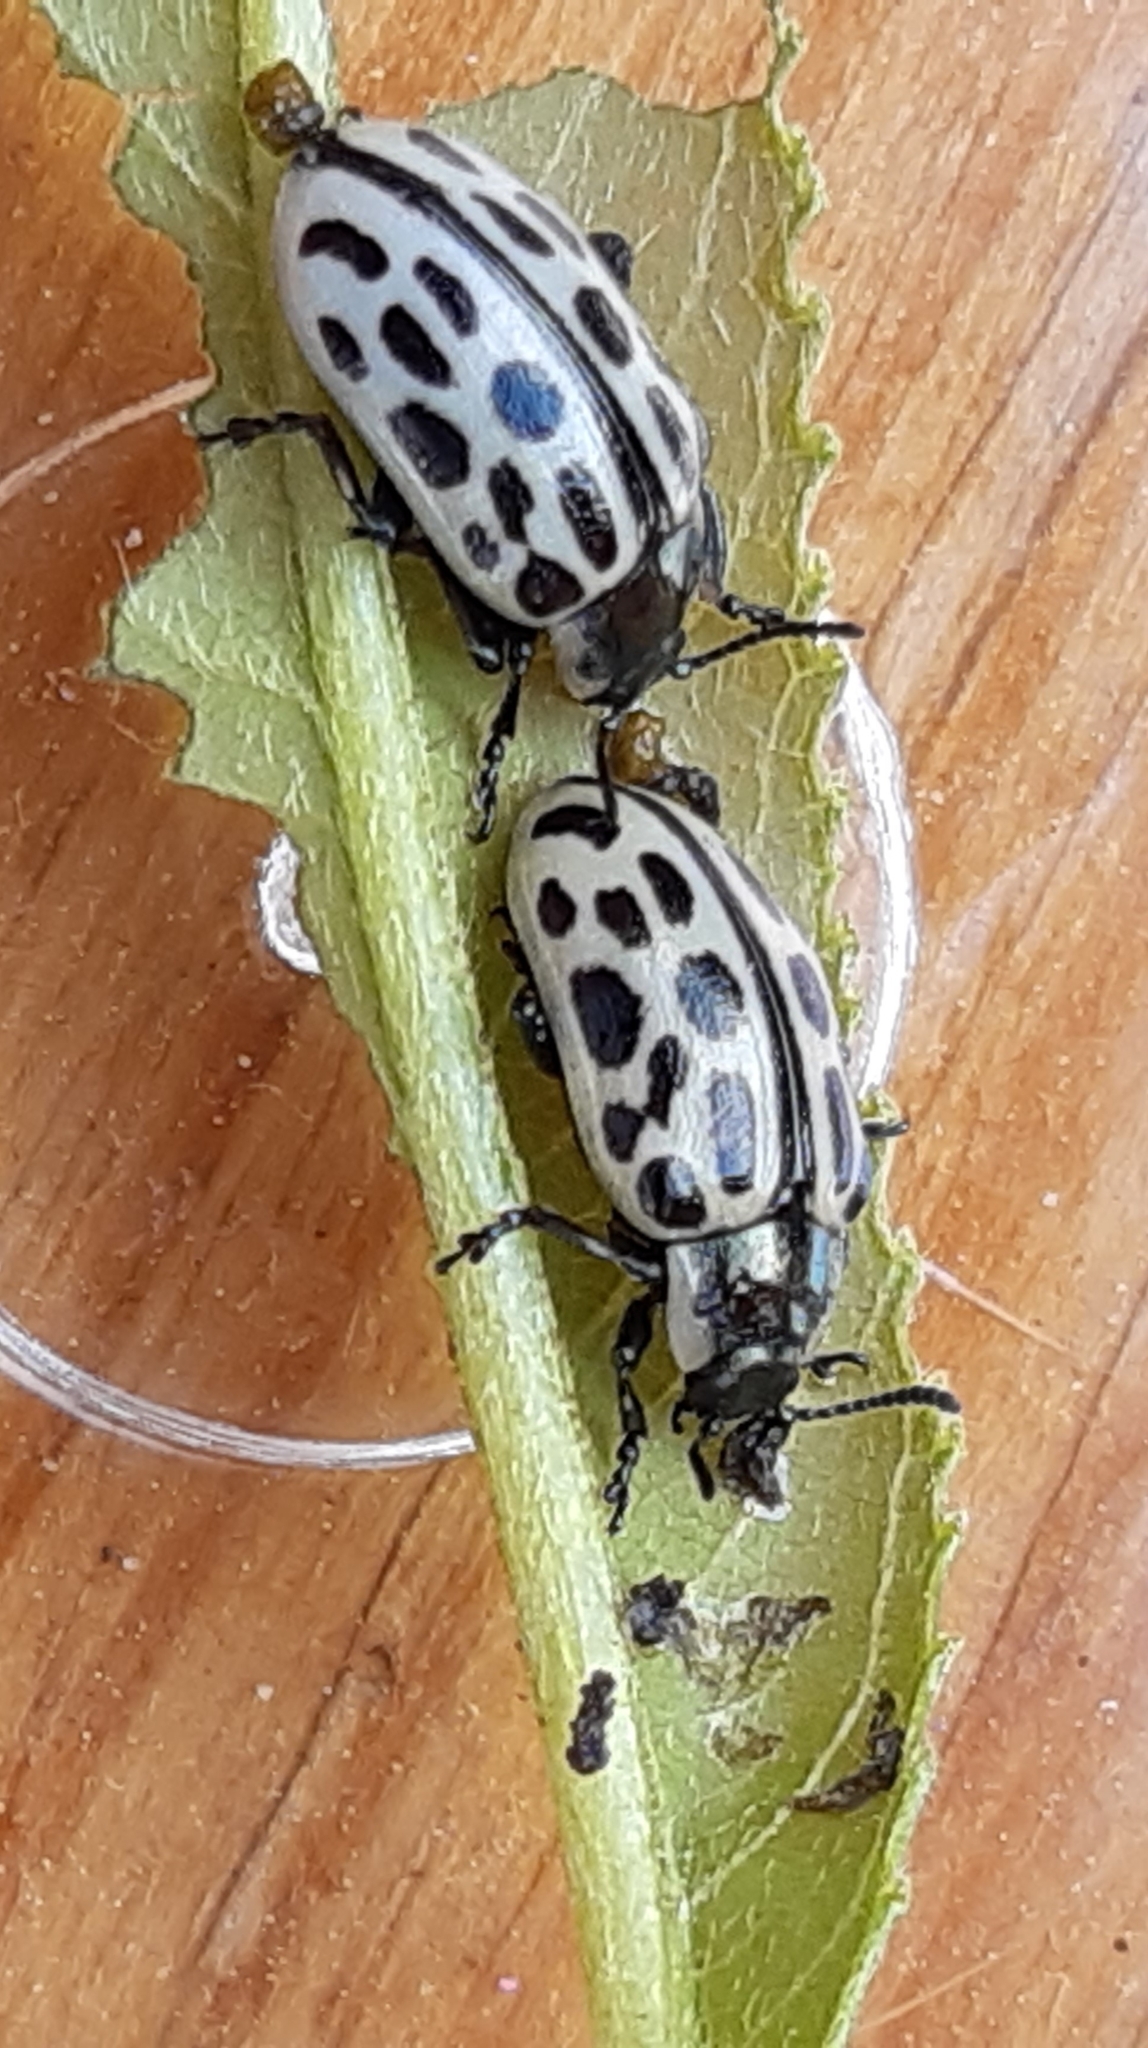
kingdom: Animalia
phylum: Arthropoda
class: Insecta
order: Coleoptera
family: Chrysomelidae
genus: Chrysomela
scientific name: Chrysomela vigintipunctata
